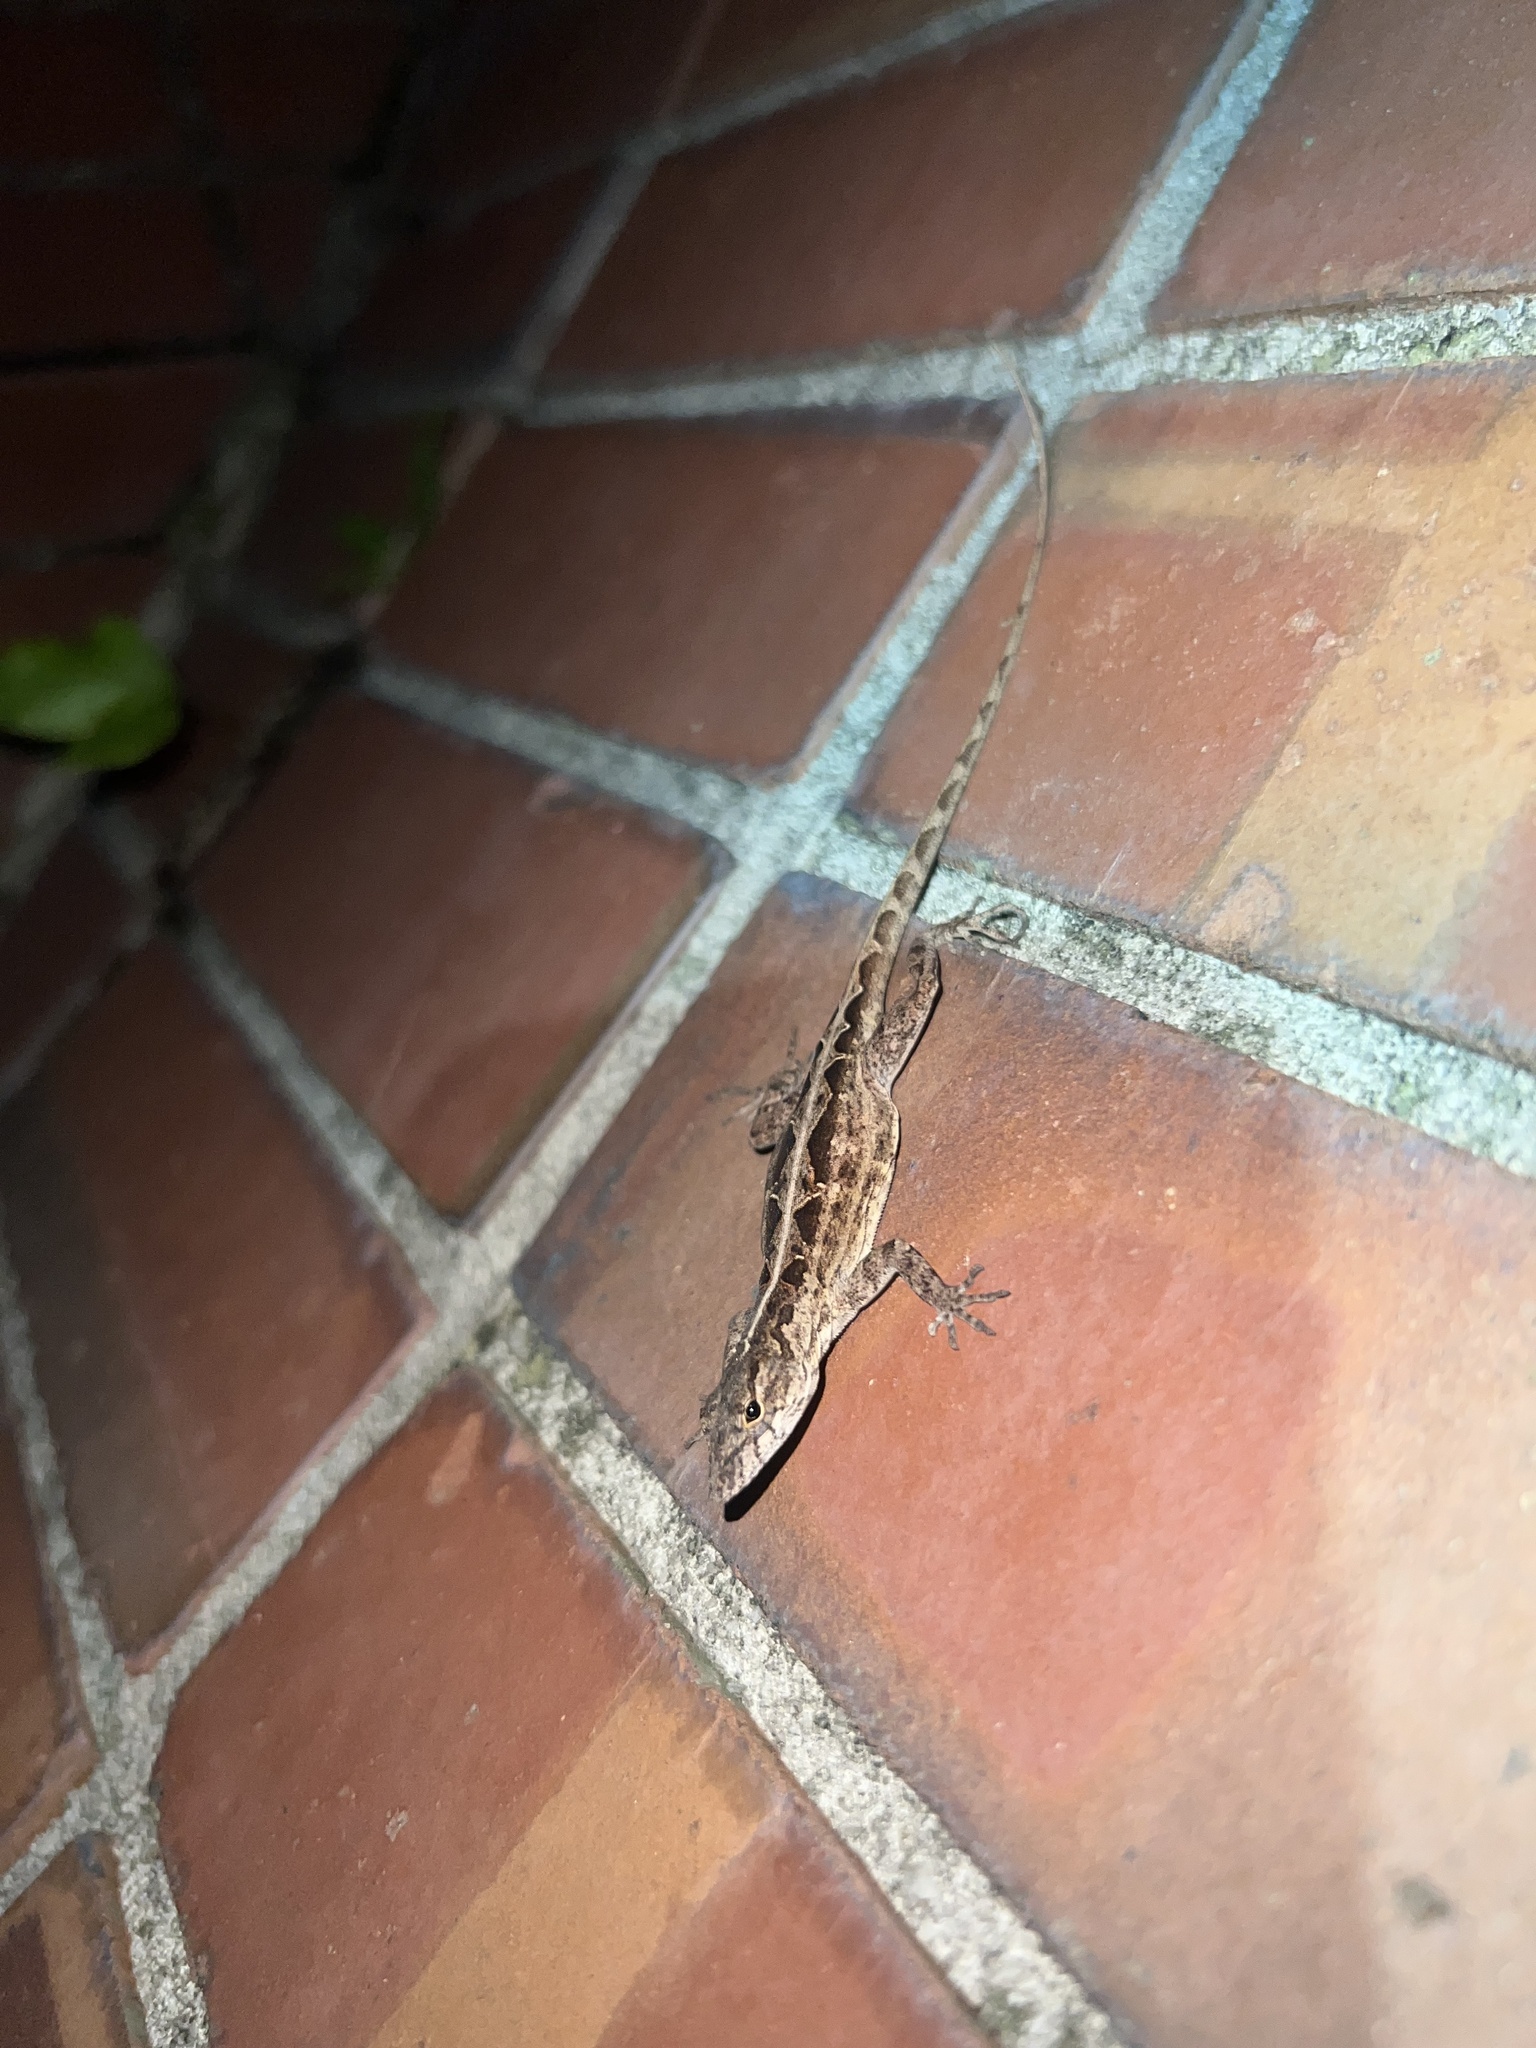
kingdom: Animalia
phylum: Chordata
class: Squamata
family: Dactyloidae
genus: Anolis
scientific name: Anolis sagrei
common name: Brown anole
